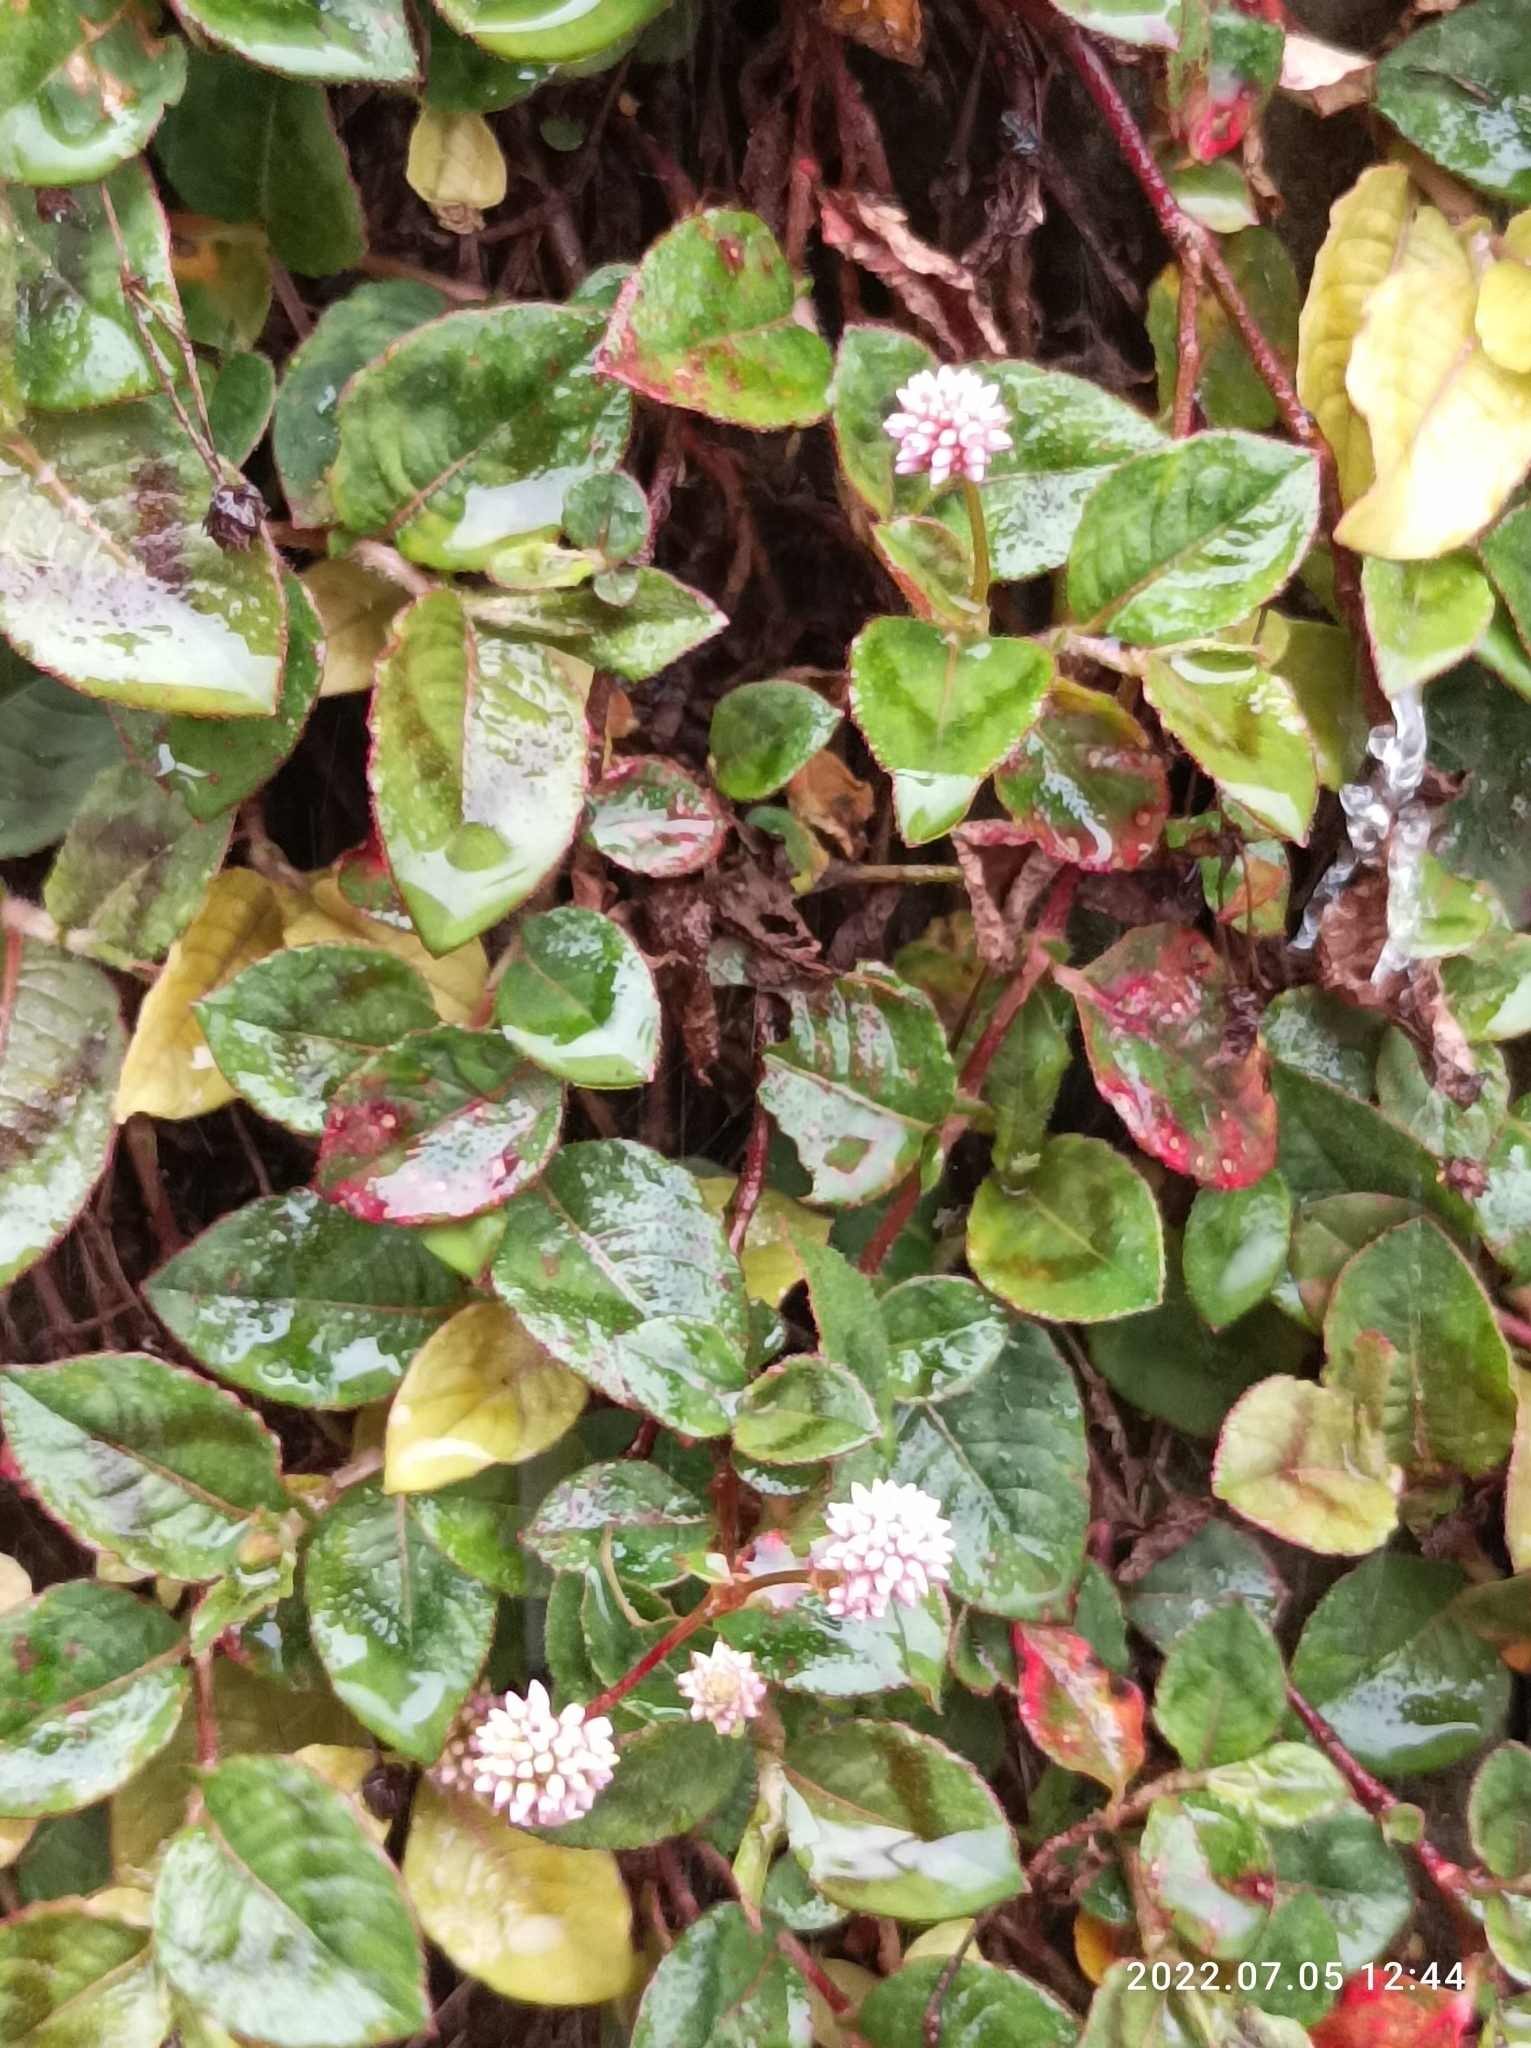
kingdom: Plantae
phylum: Tracheophyta
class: Magnoliopsida
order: Caryophyllales
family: Polygonaceae
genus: Persicaria
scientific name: Persicaria capitata
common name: Pinkhead smartweed
